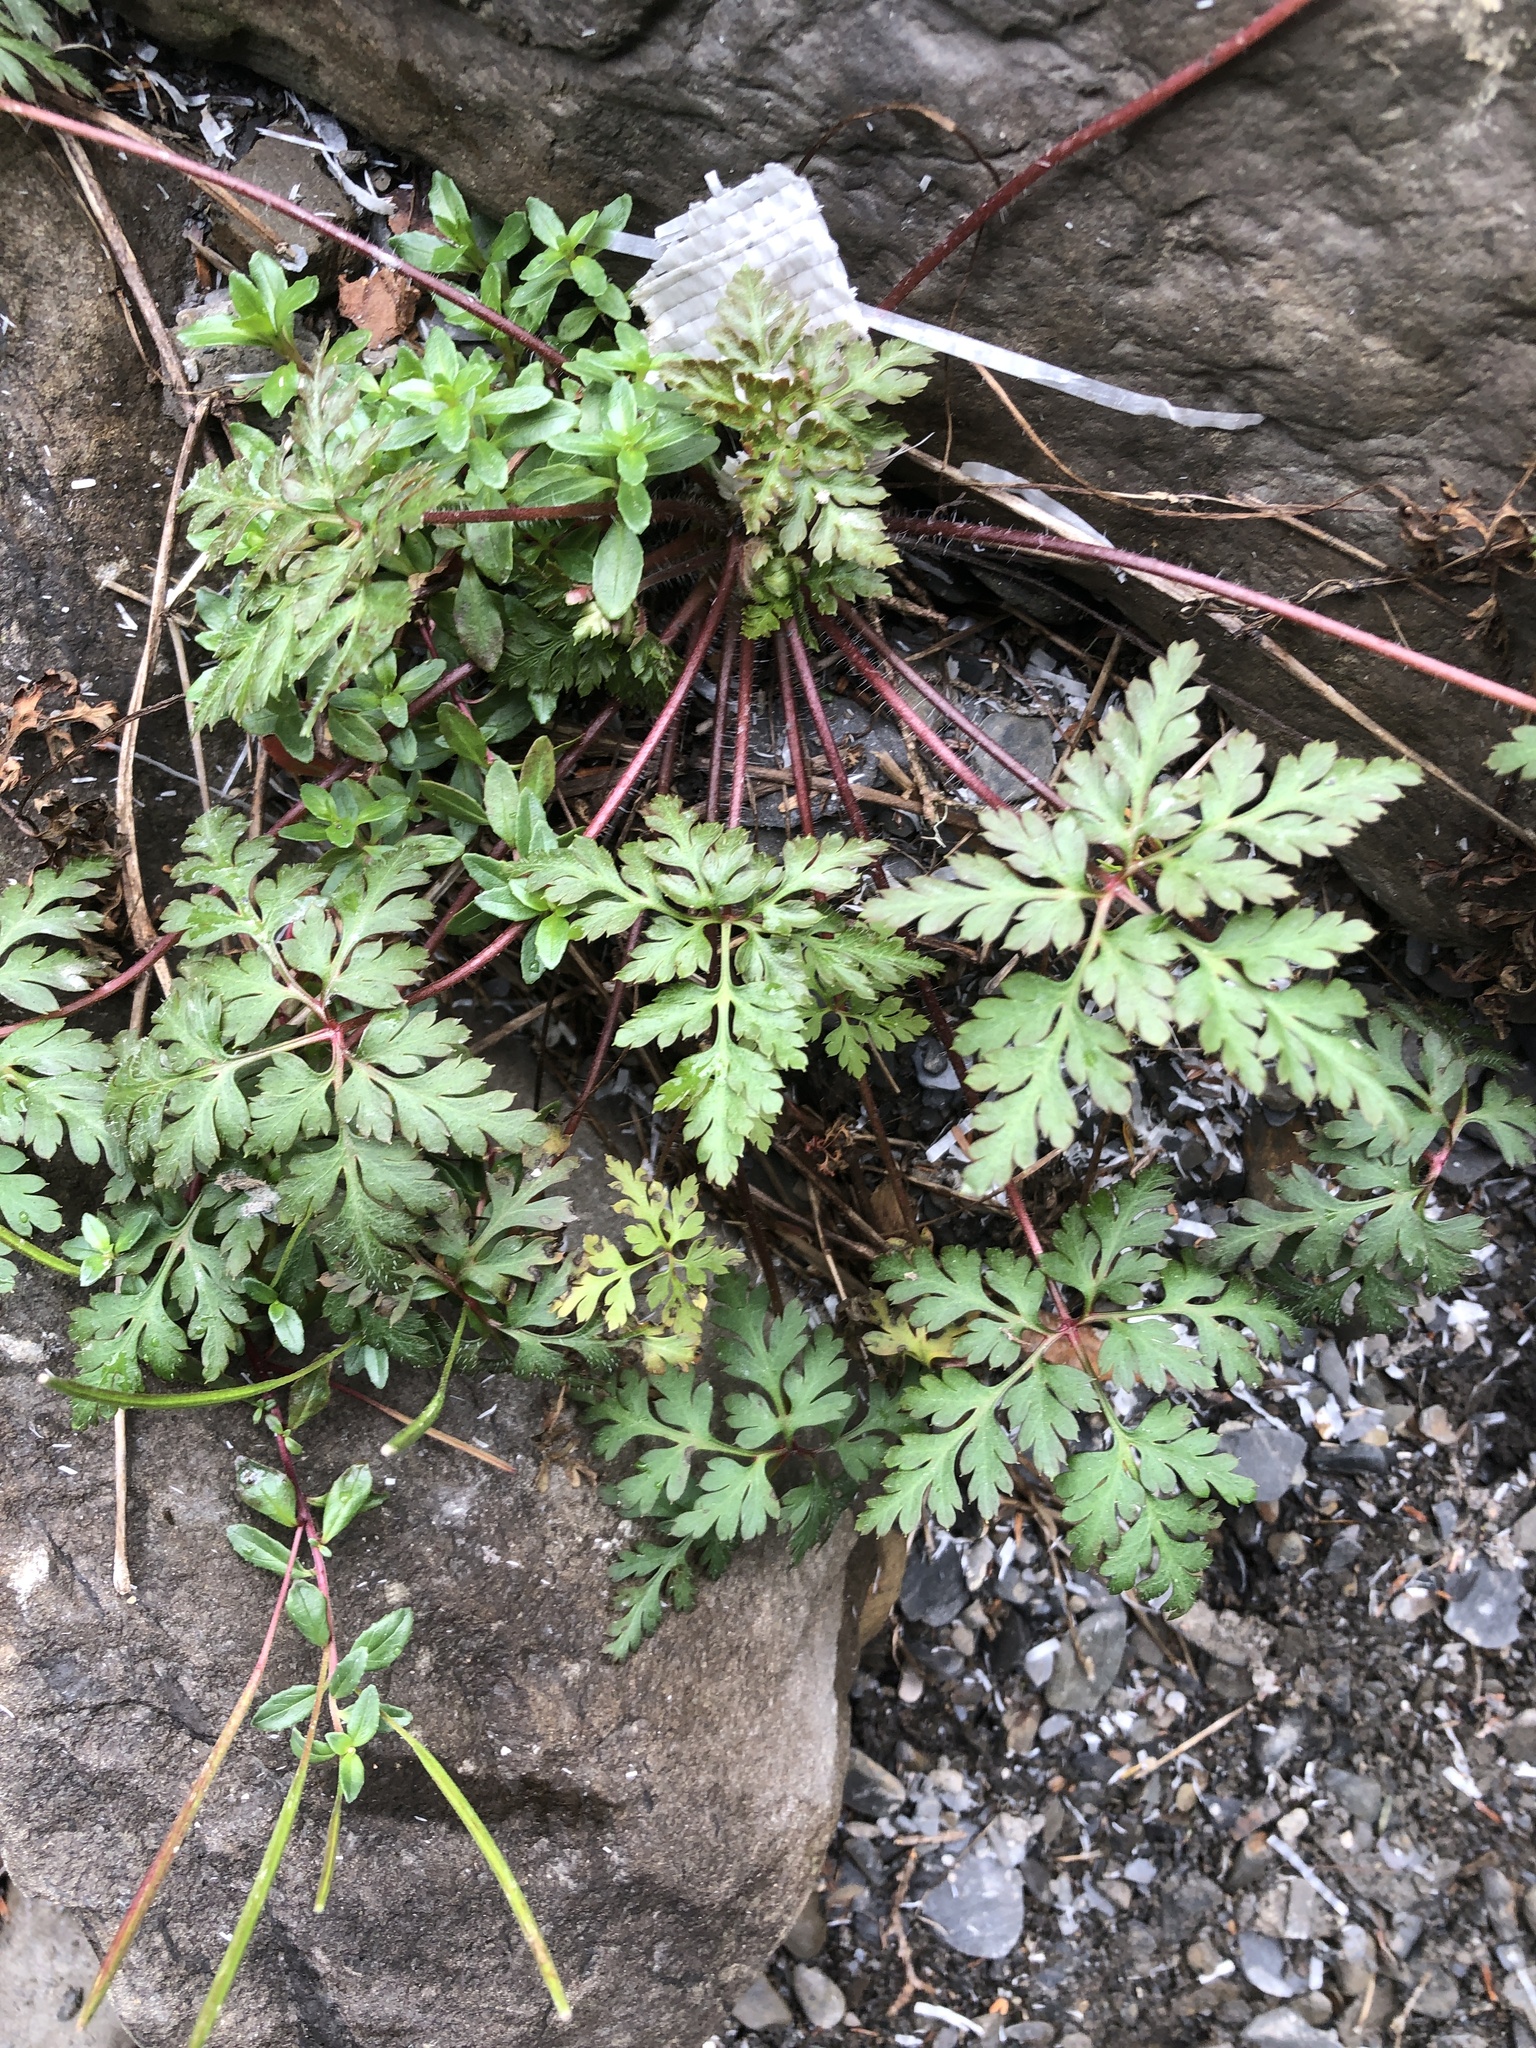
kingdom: Plantae
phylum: Tracheophyta
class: Magnoliopsida
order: Geraniales
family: Geraniaceae
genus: Geranium
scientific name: Geranium robertianum
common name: Herb-robert
